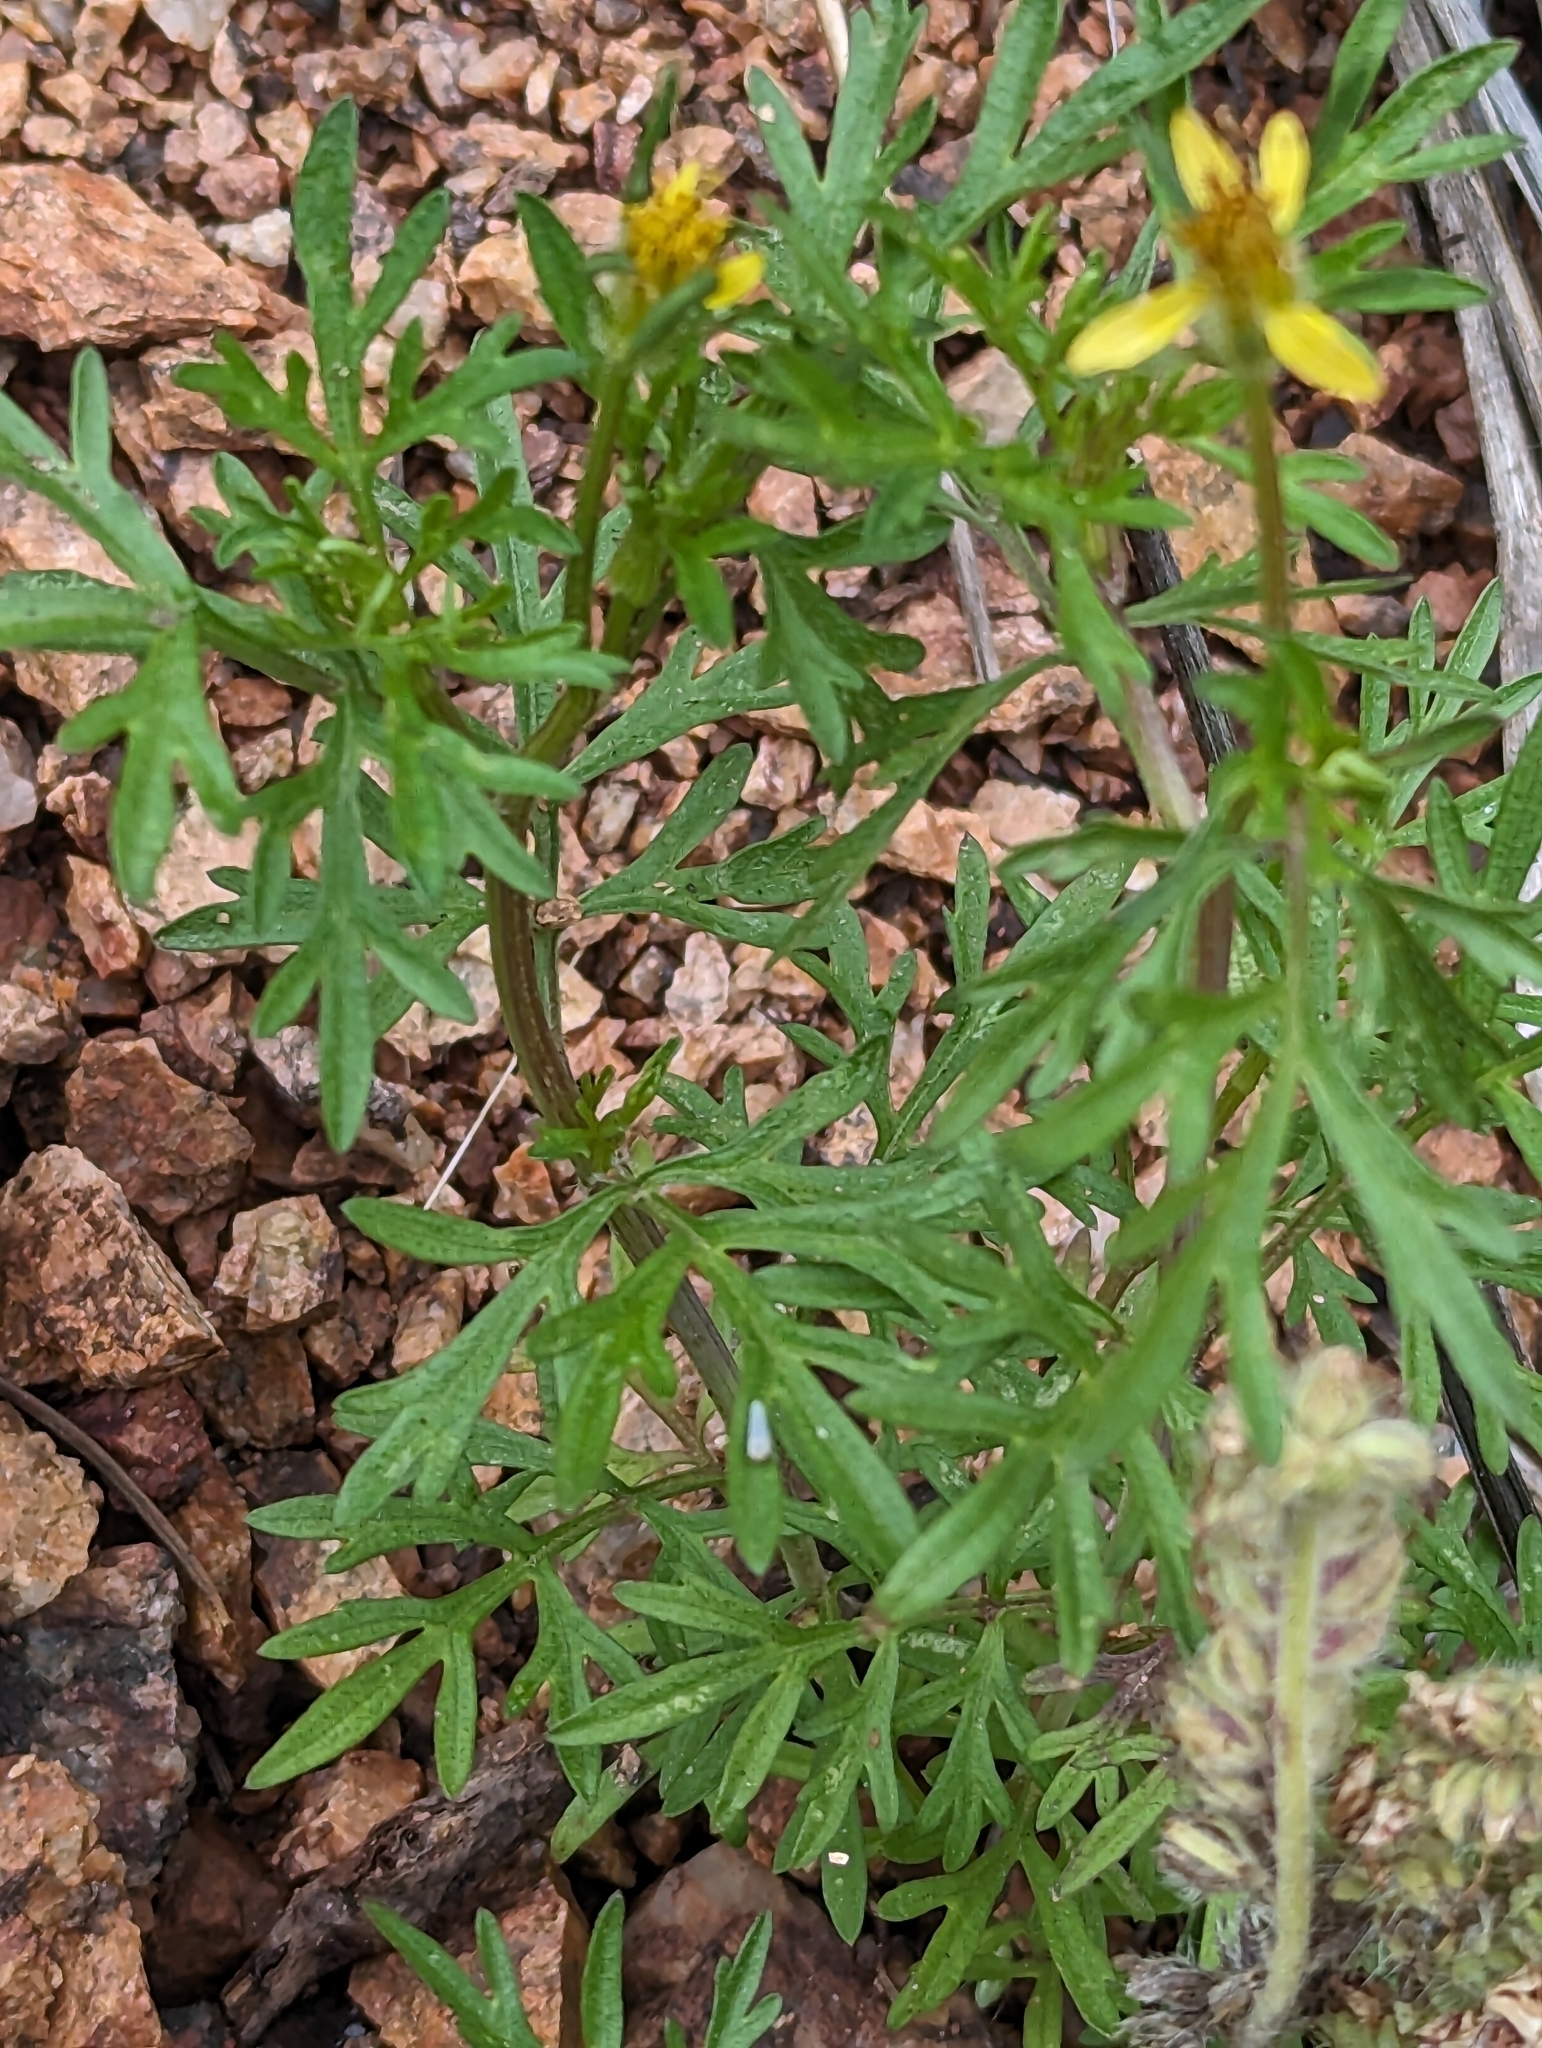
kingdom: Plantae
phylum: Tracheophyta
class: Magnoliopsida
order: Asterales
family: Asteraceae
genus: Bidens
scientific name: Bidens tenuisecta
